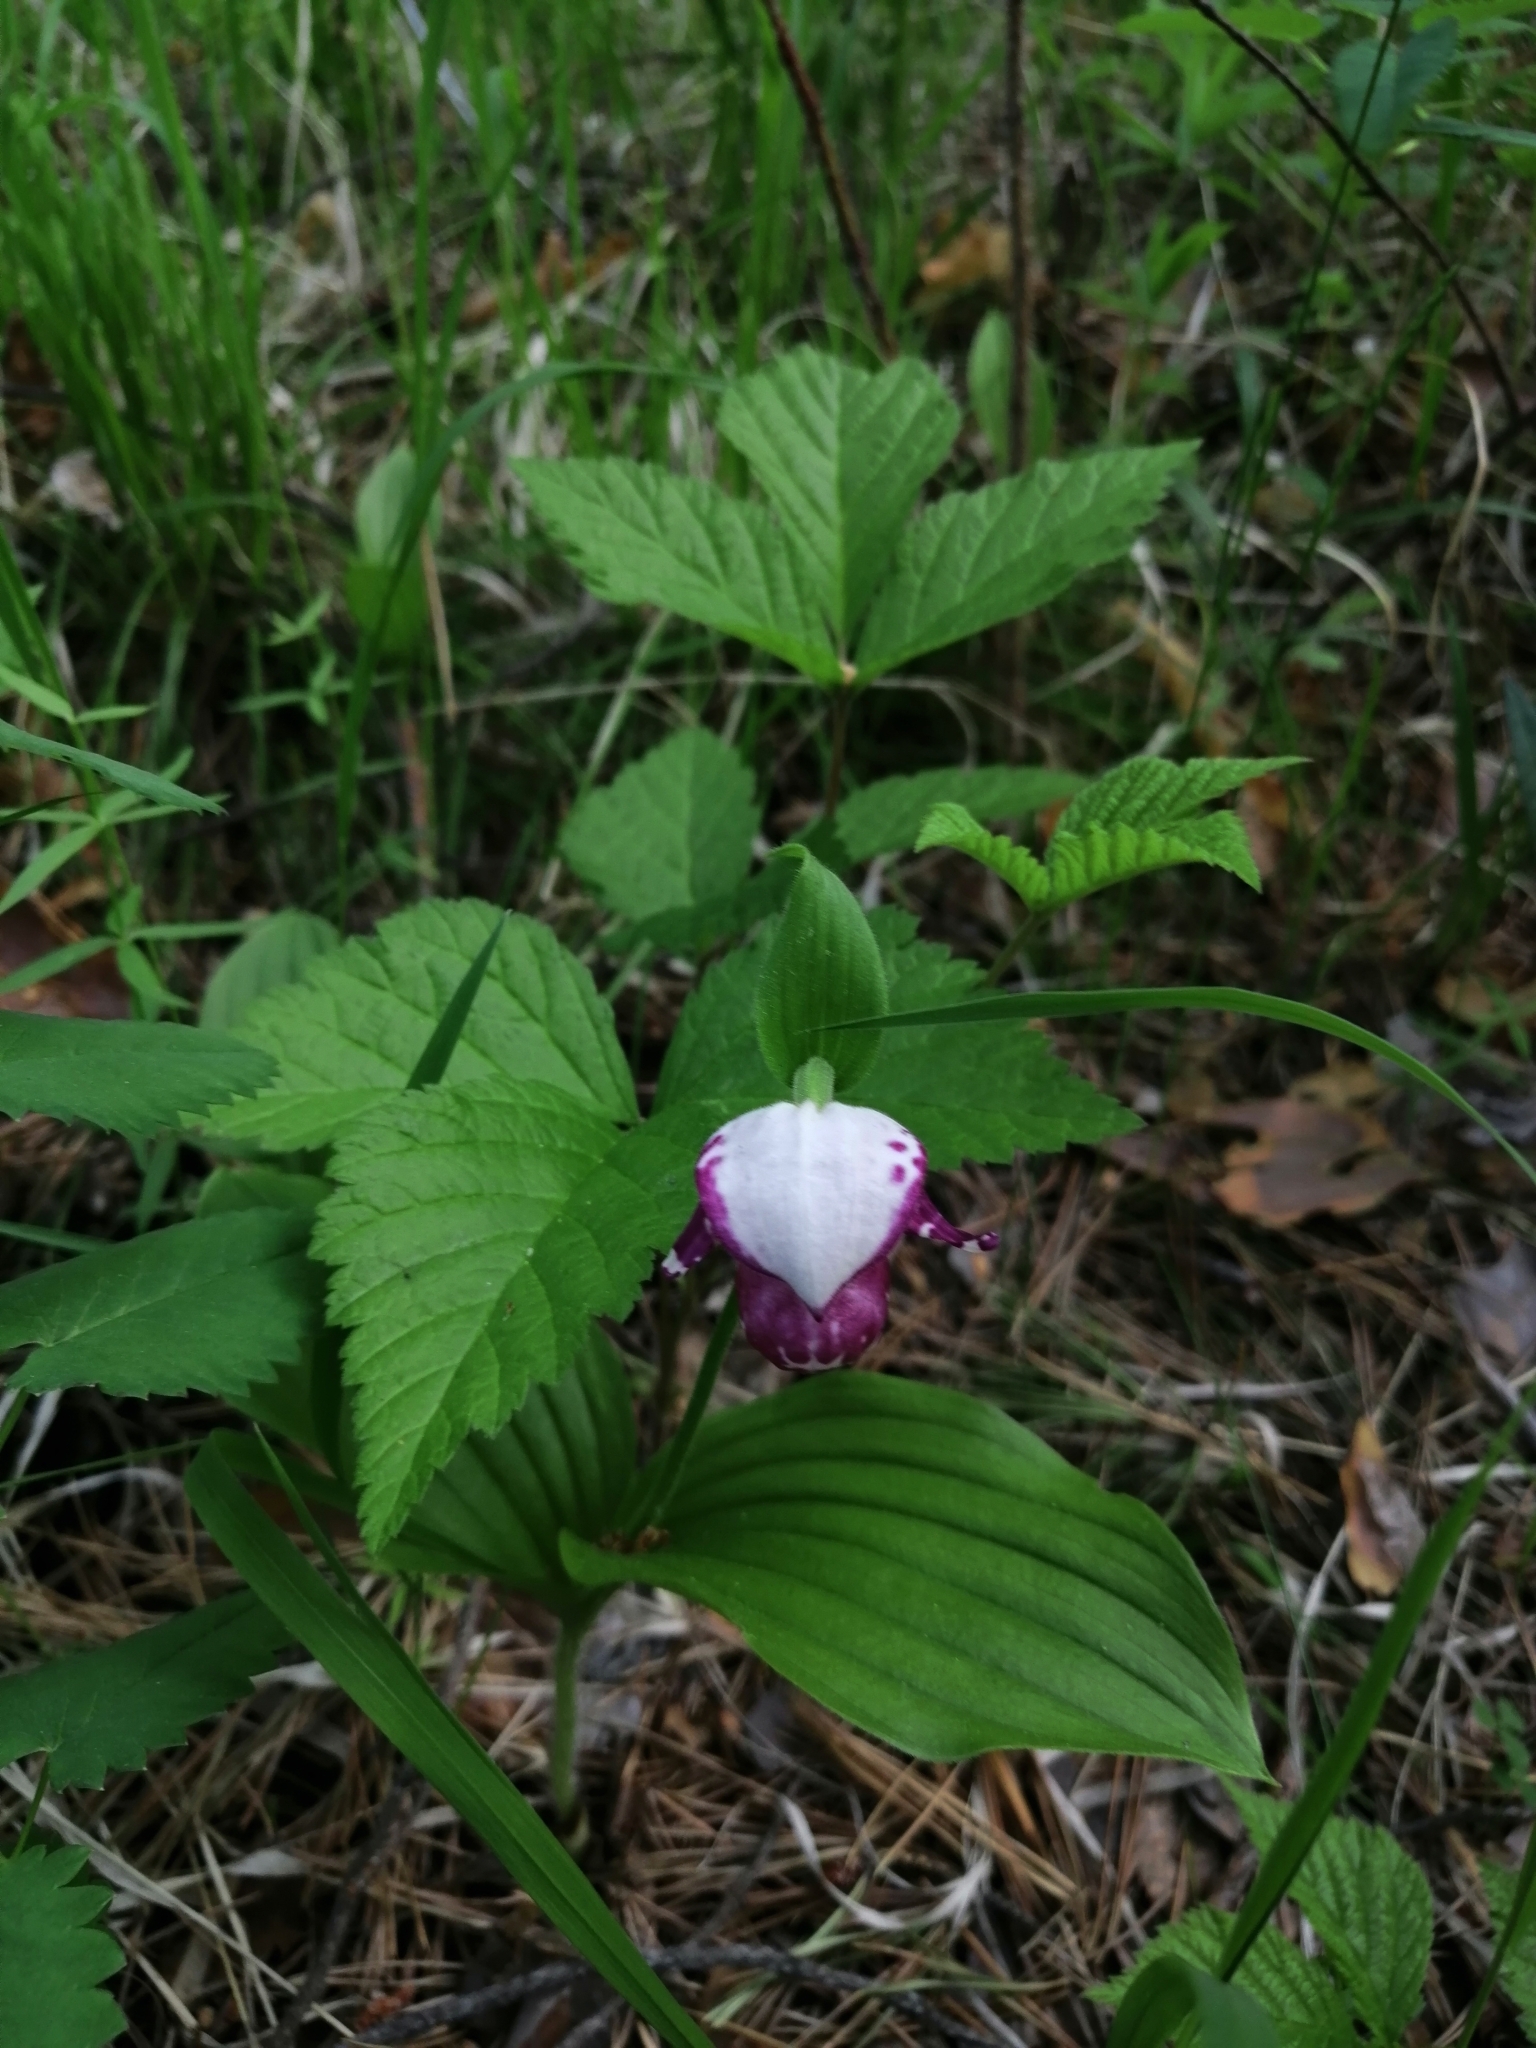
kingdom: Plantae
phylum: Tracheophyta
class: Liliopsida
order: Asparagales
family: Orchidaceae
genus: Cypripedium
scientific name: Cypripedium guttatum
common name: Pink lady slipper
